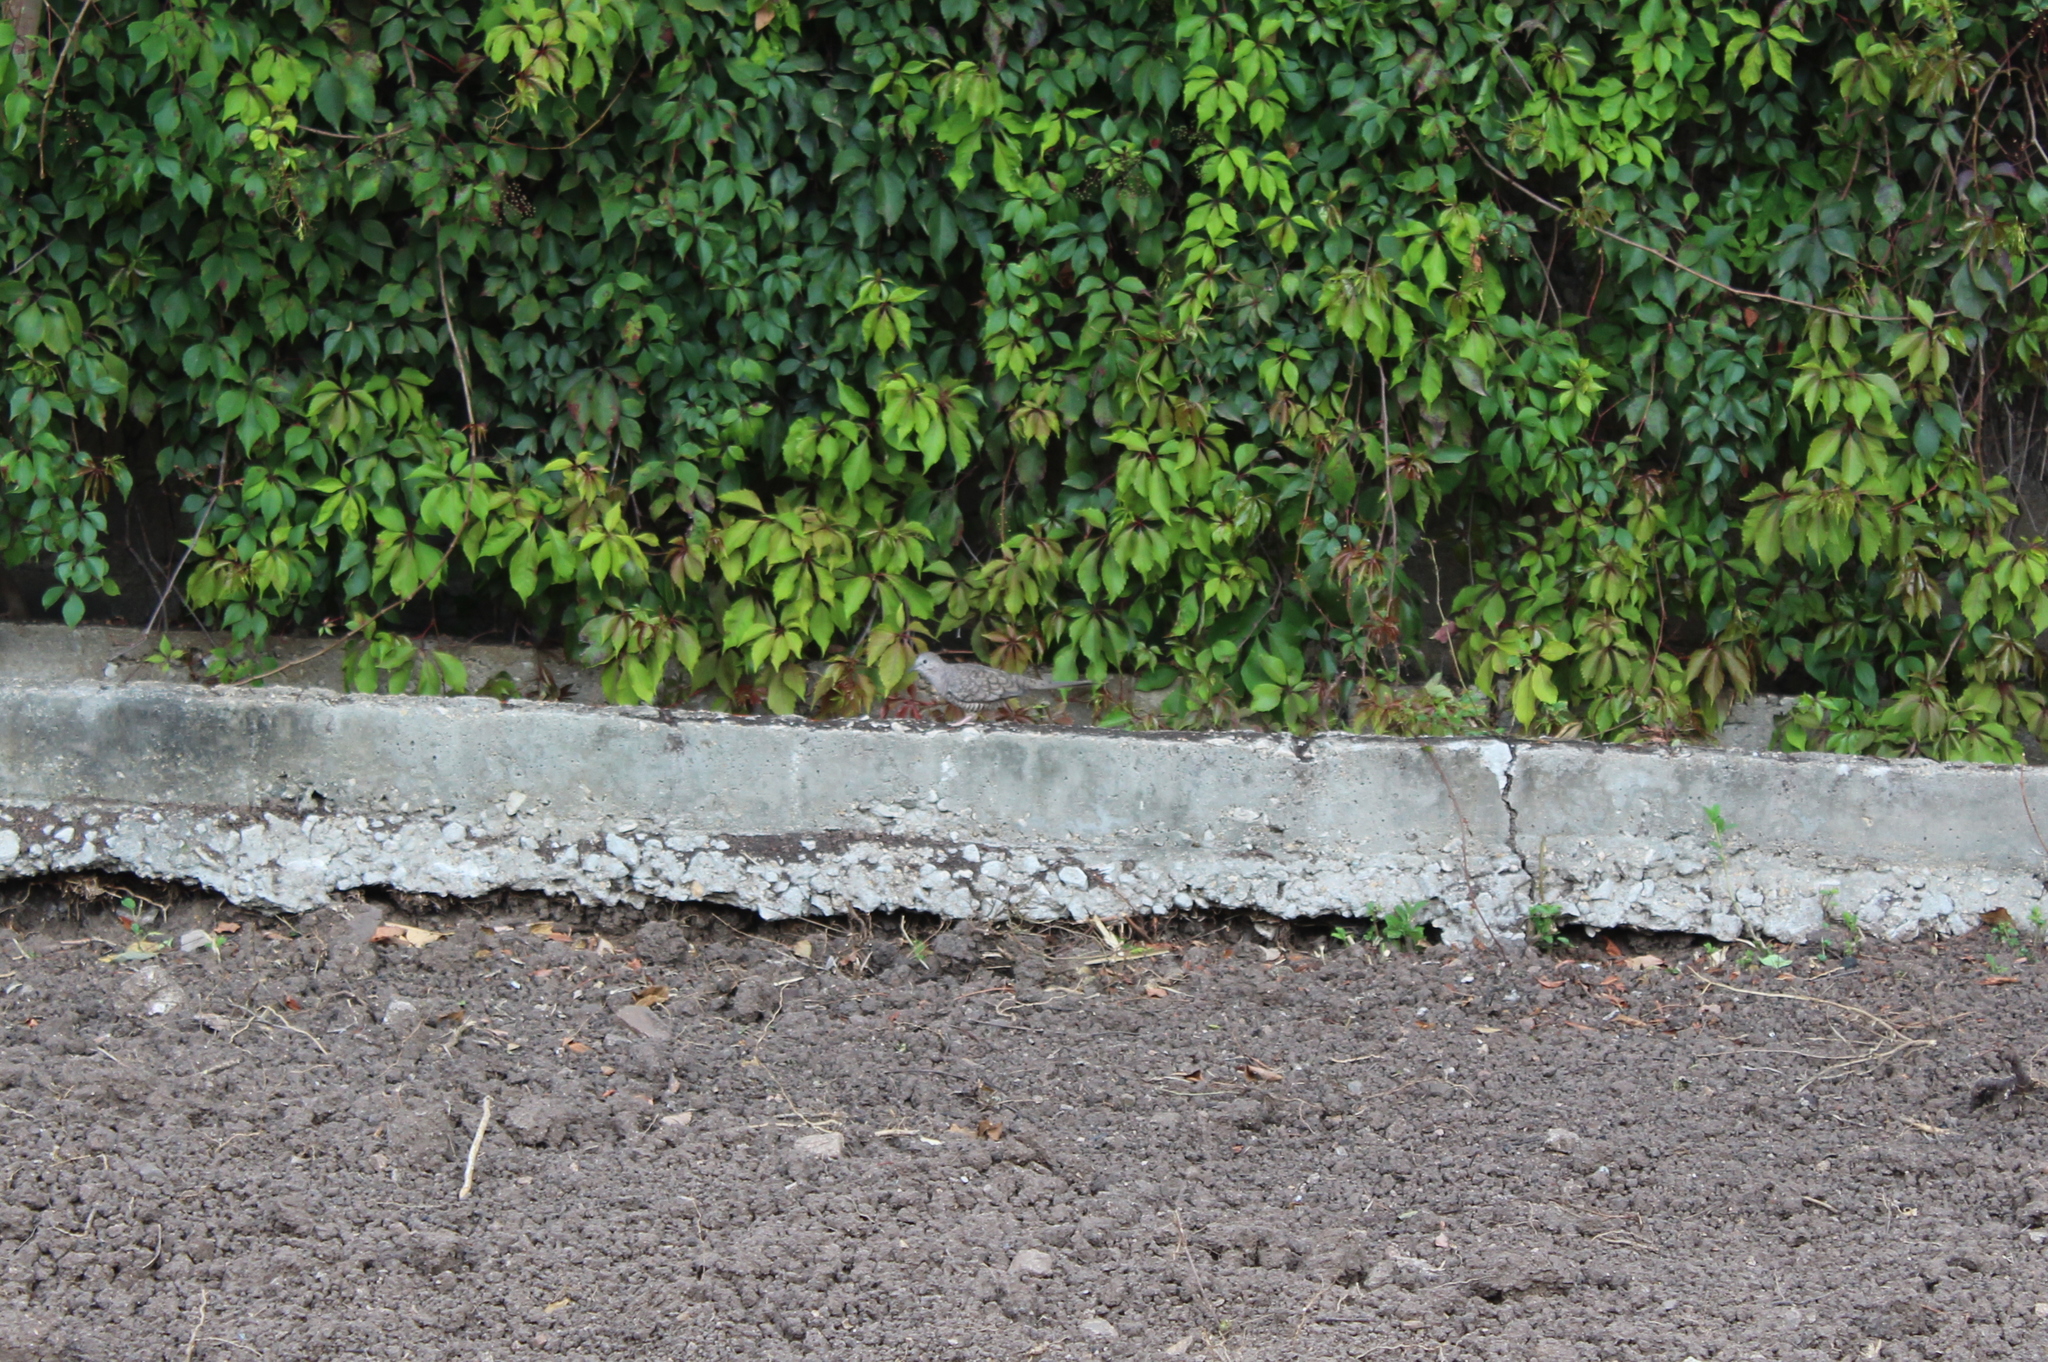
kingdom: Animalia
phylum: Chordata
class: Aves
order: Columbiformes
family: Columbidae
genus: Columbina
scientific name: Columbina inca
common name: Inca dove
